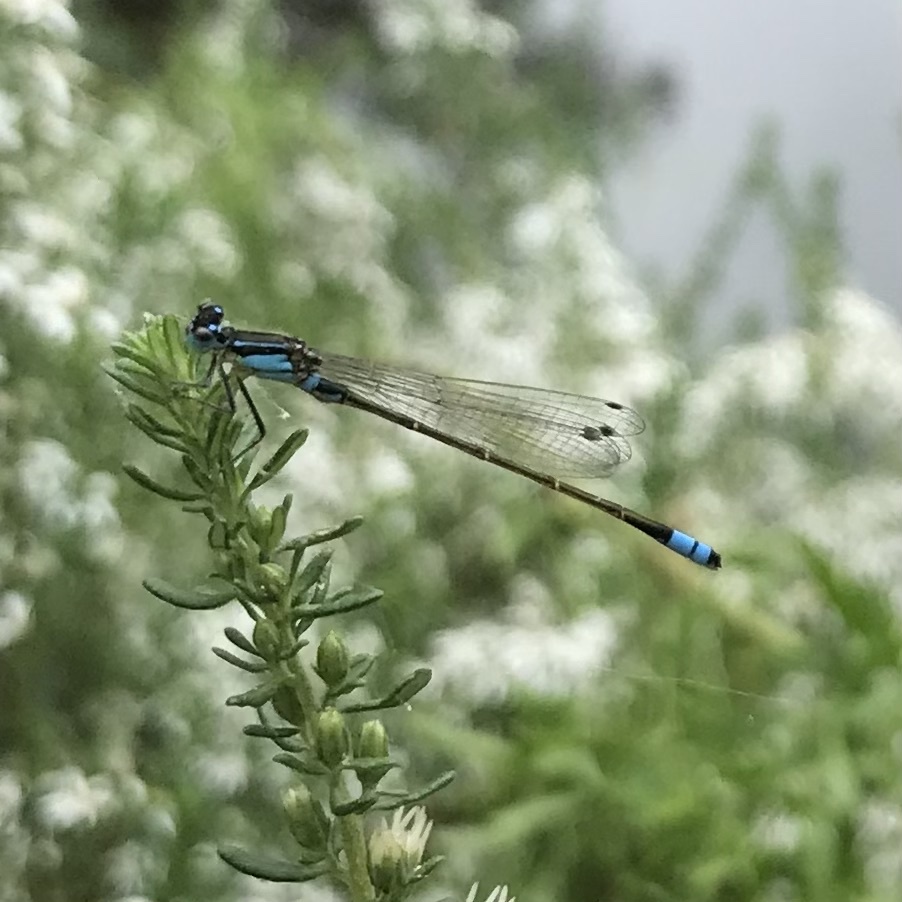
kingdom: Animalia
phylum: Arthropoda
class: Insecta
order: Odonata
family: Coenagrionidae
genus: Ischnura
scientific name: Ischnura heterosticta
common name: Common bluetail
